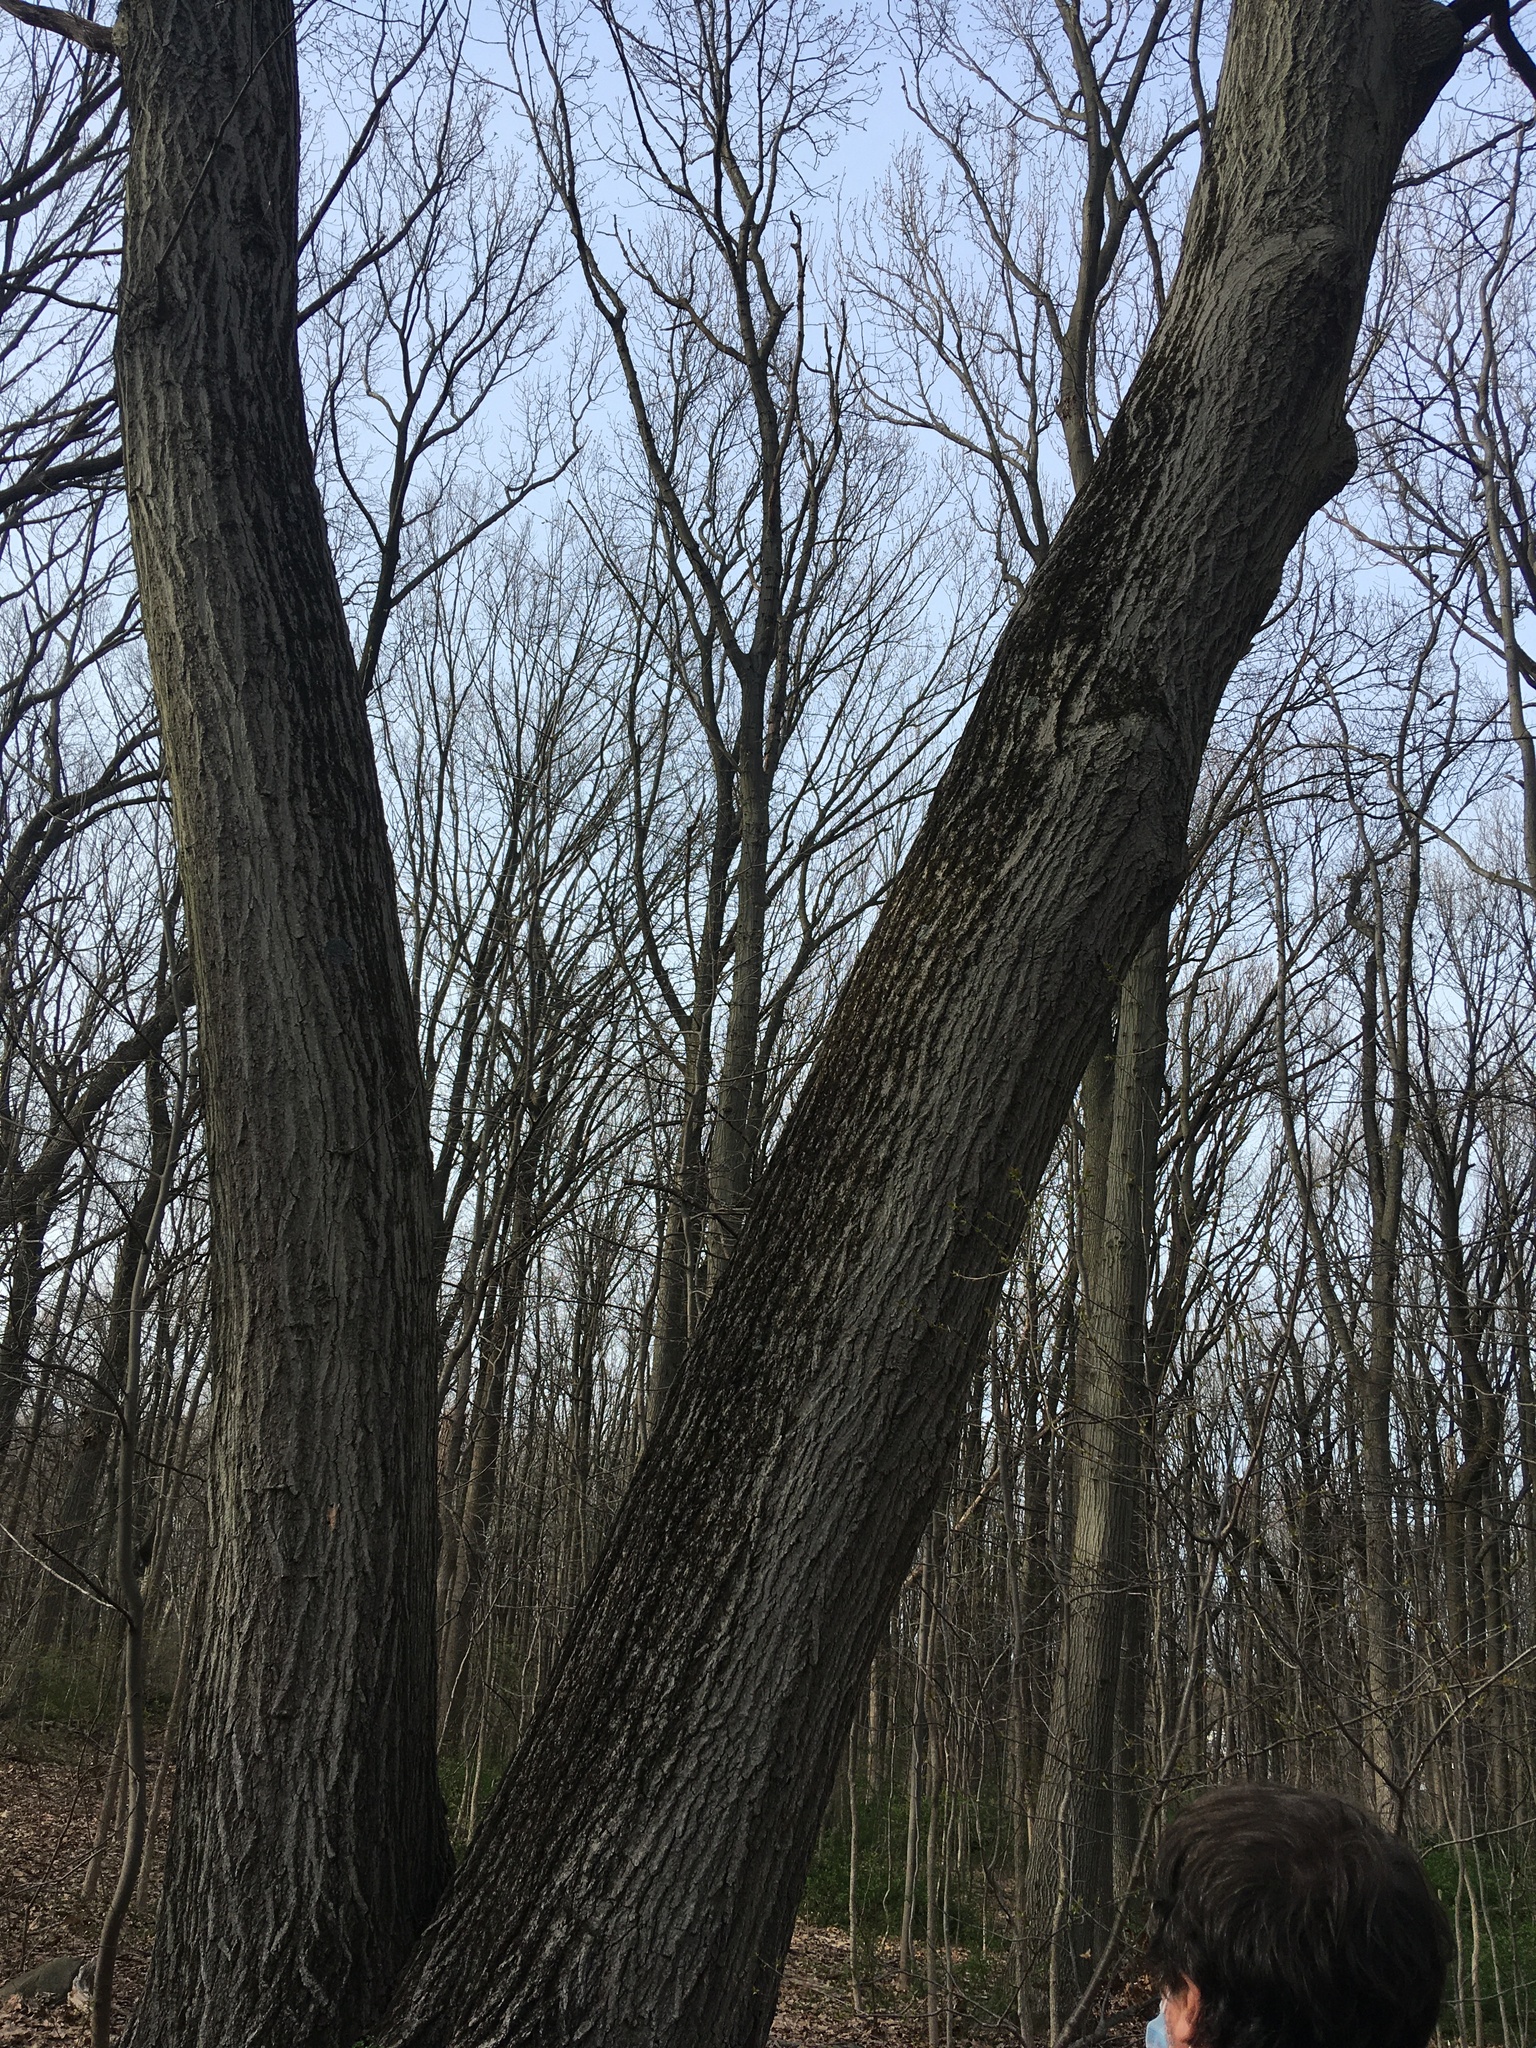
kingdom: Plantae
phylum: Tracheophyta
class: Magnoliopsida
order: Fagales
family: Fagaceae
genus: Quercus
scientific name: Quercus rubra
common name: Red oak
